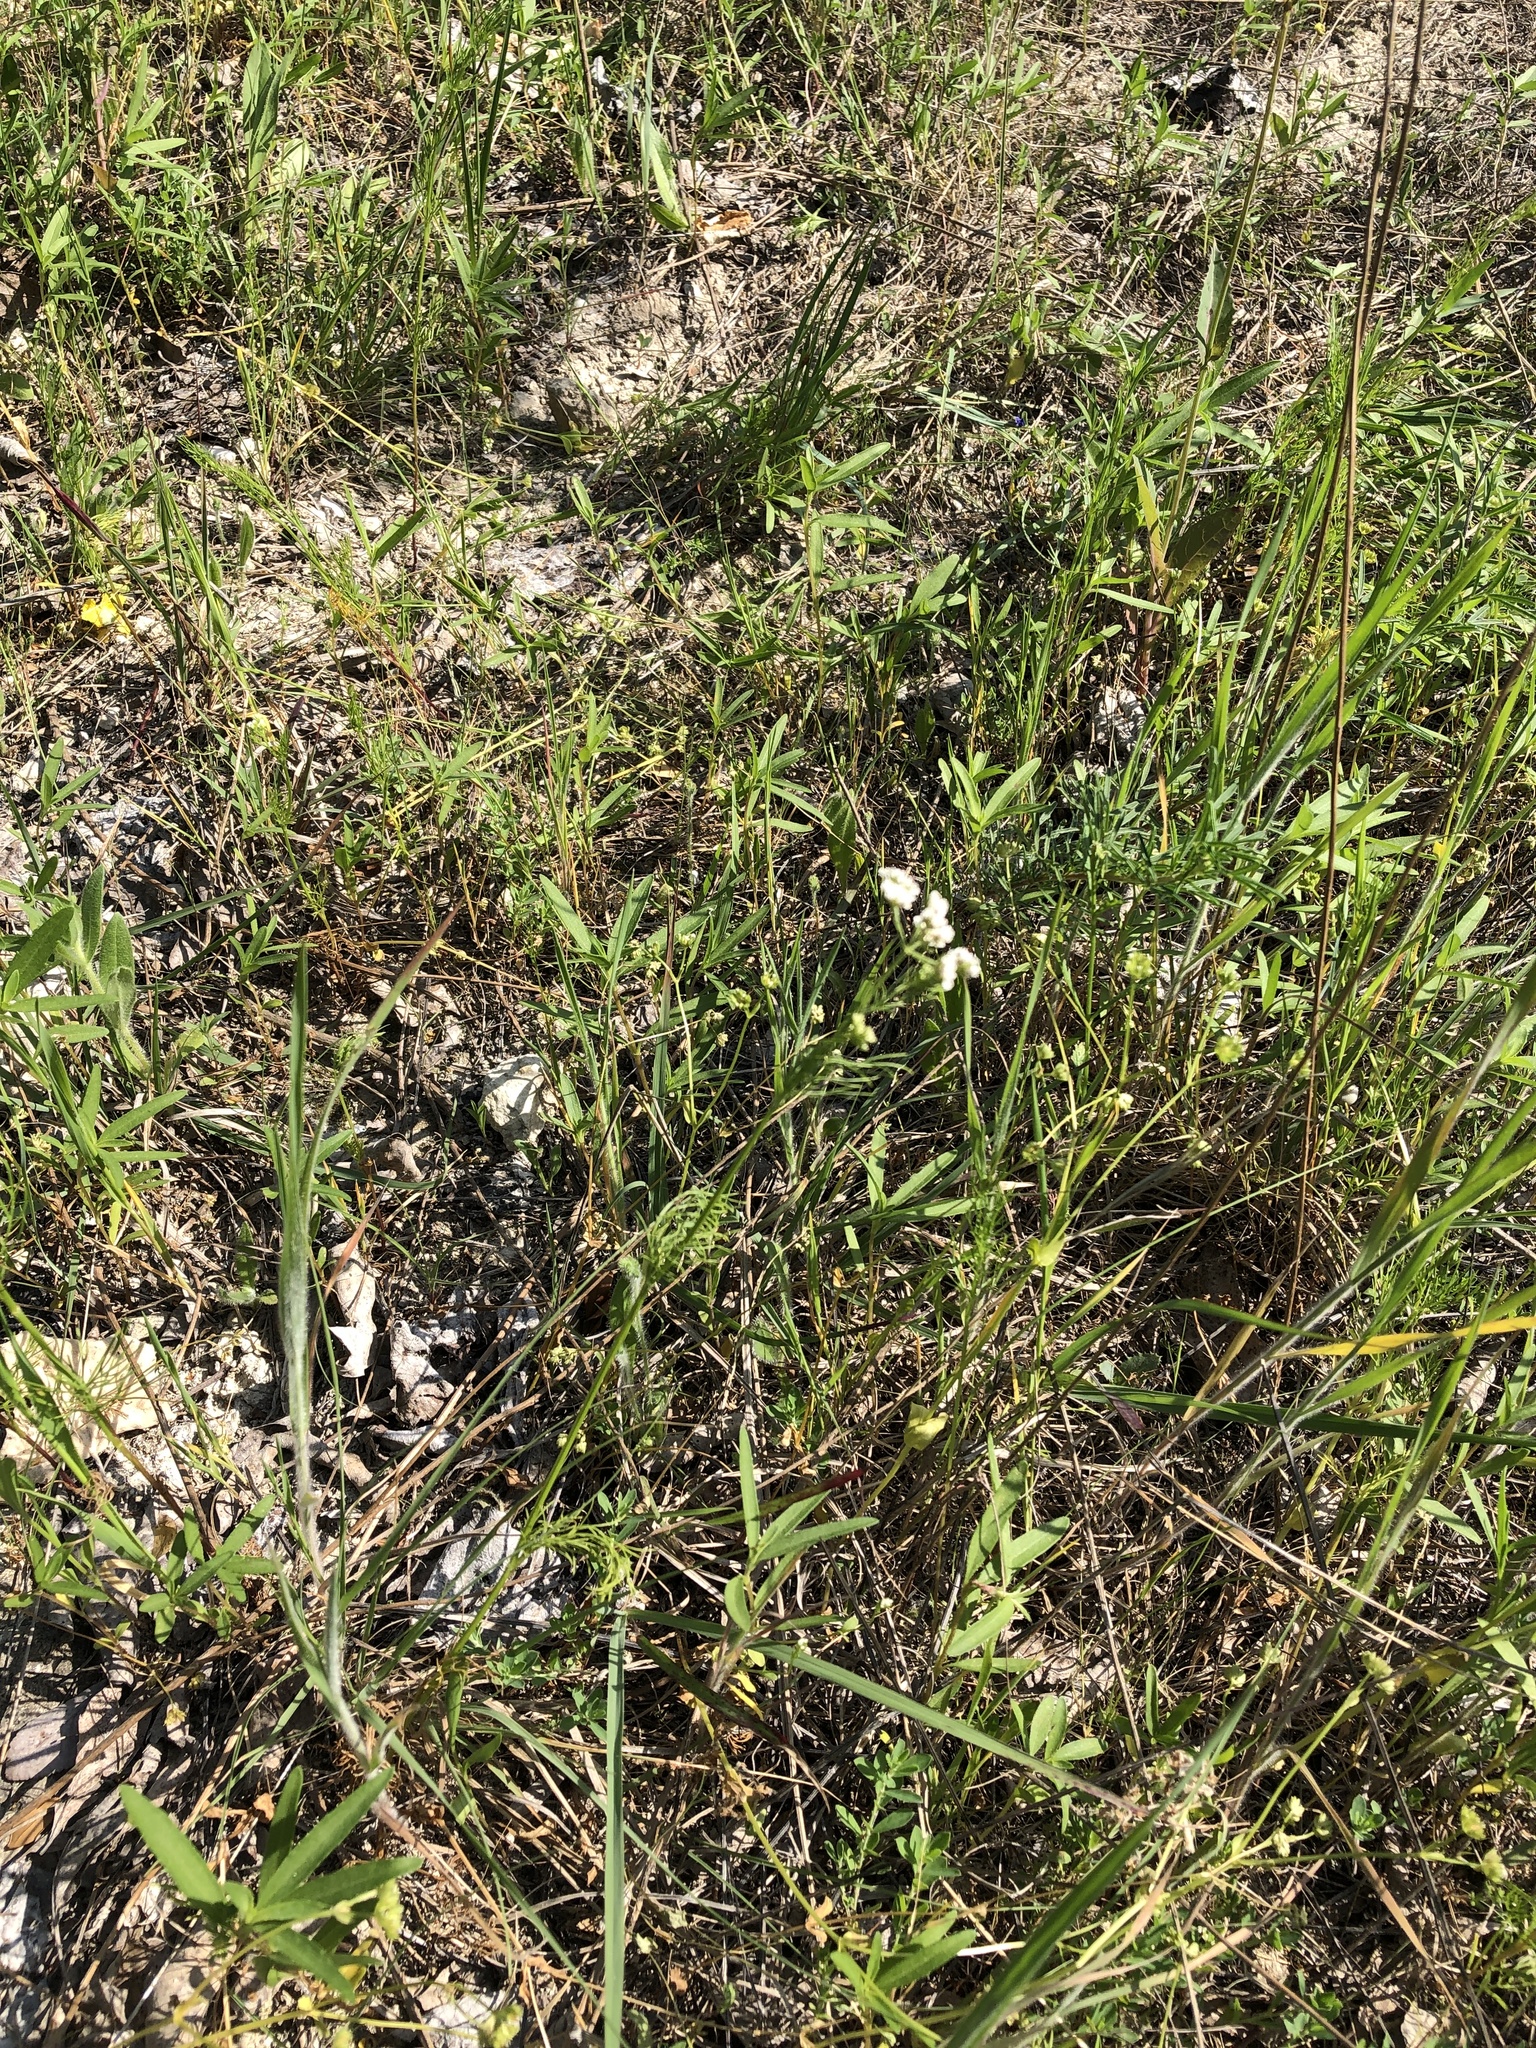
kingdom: Plantae
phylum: Tracheophyta
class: Magnoliopsida
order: Apiales
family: Apiaceae
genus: Atrema
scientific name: Atrema americanum
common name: Prairie-bishop
